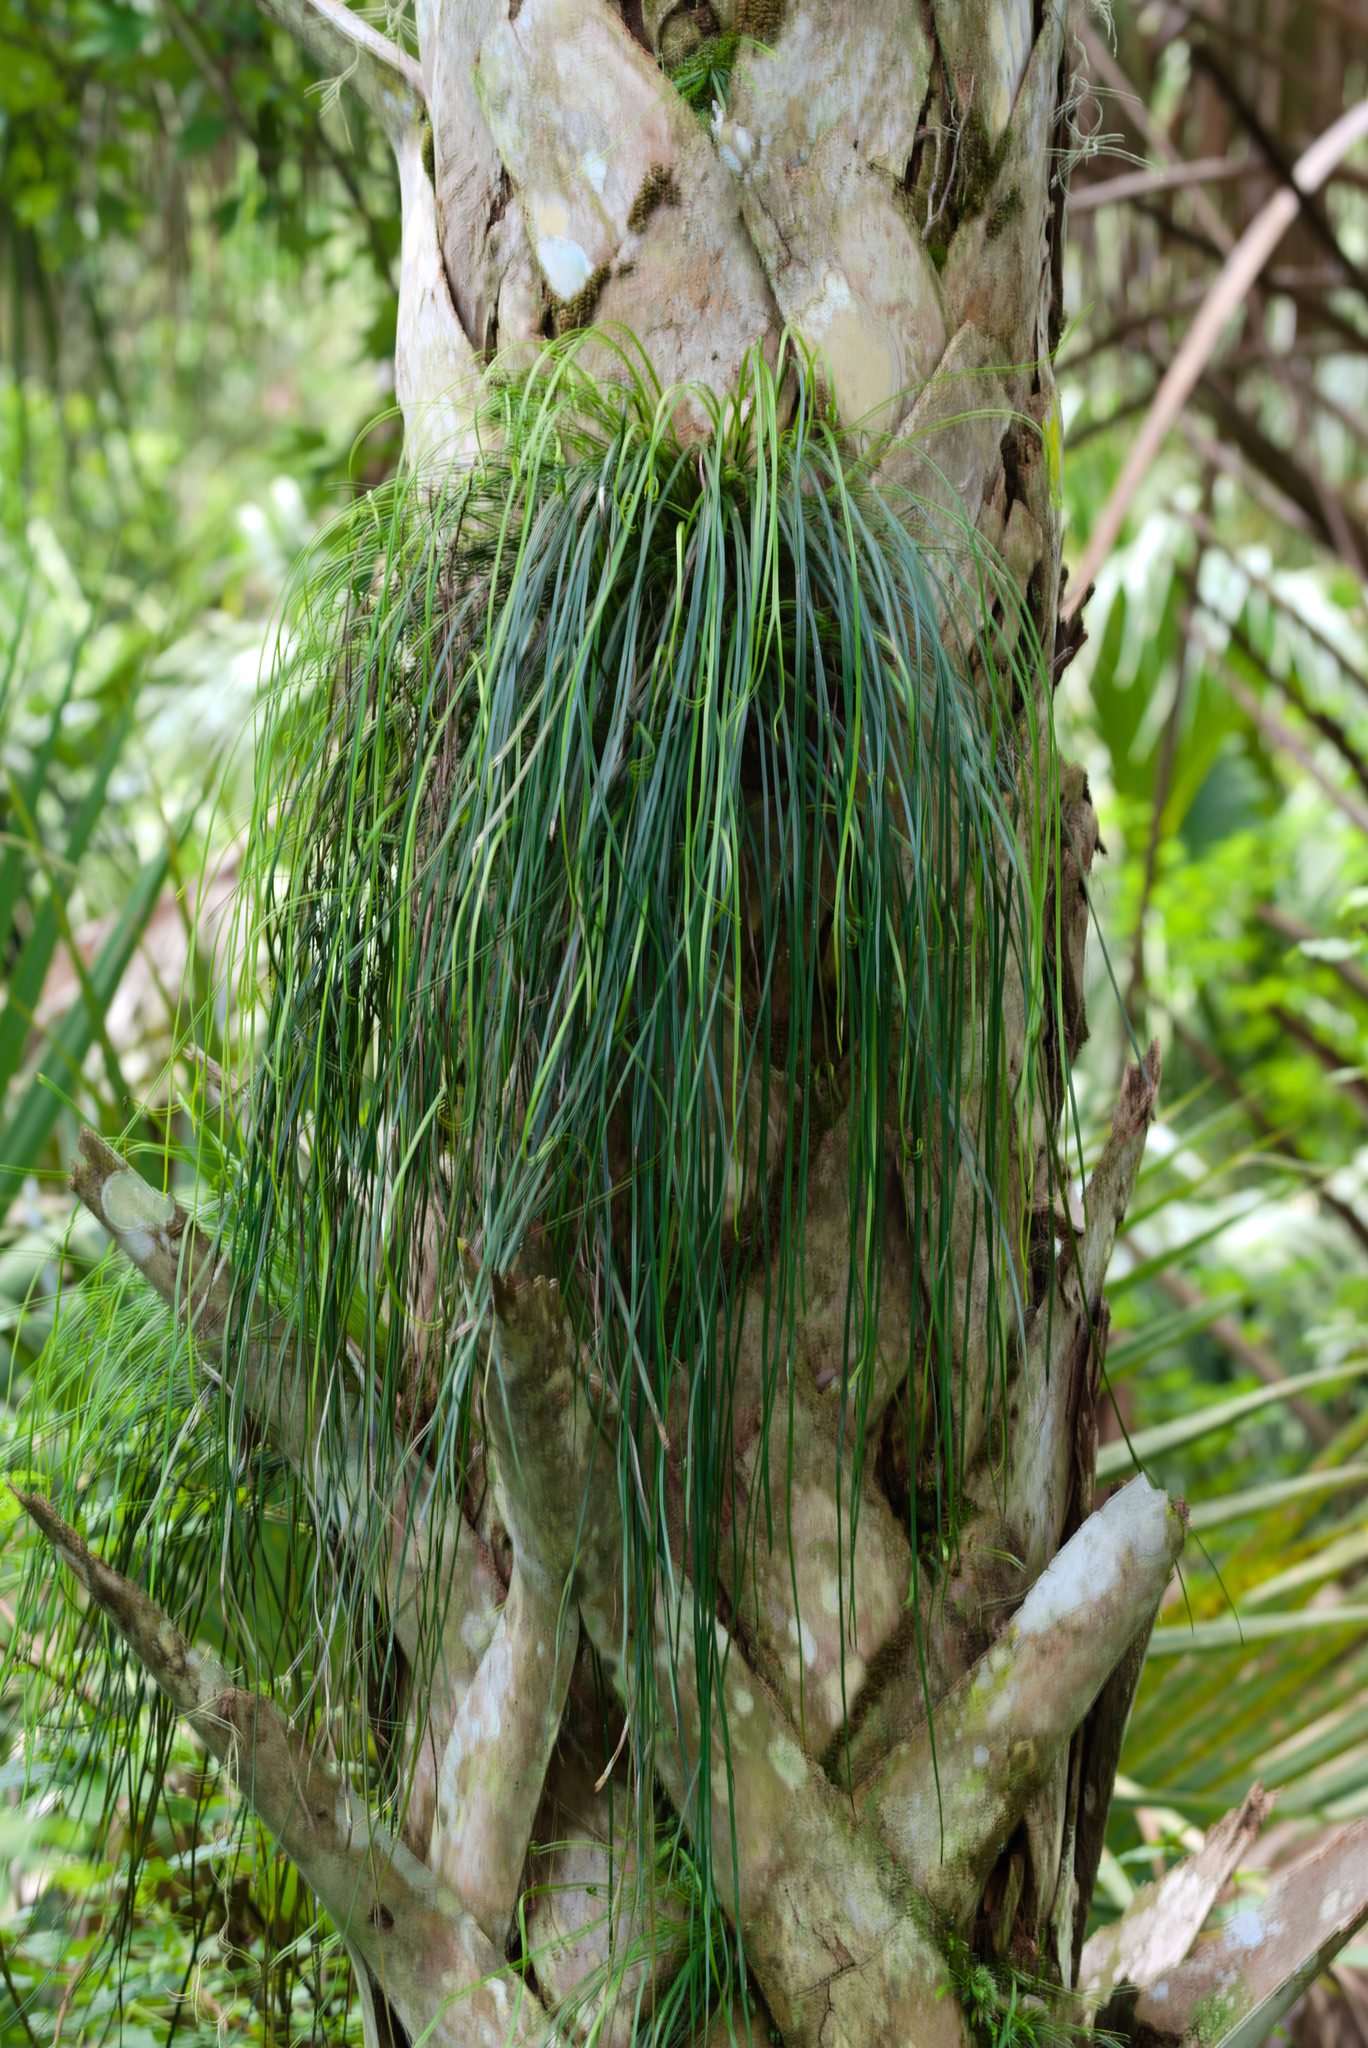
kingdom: Plantae
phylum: Tracheophyta
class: Polypodiopsida
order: Polypodiales
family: Pteridaceae
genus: Vittaria
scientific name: Vittaria lineata
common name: Shoestring fern
